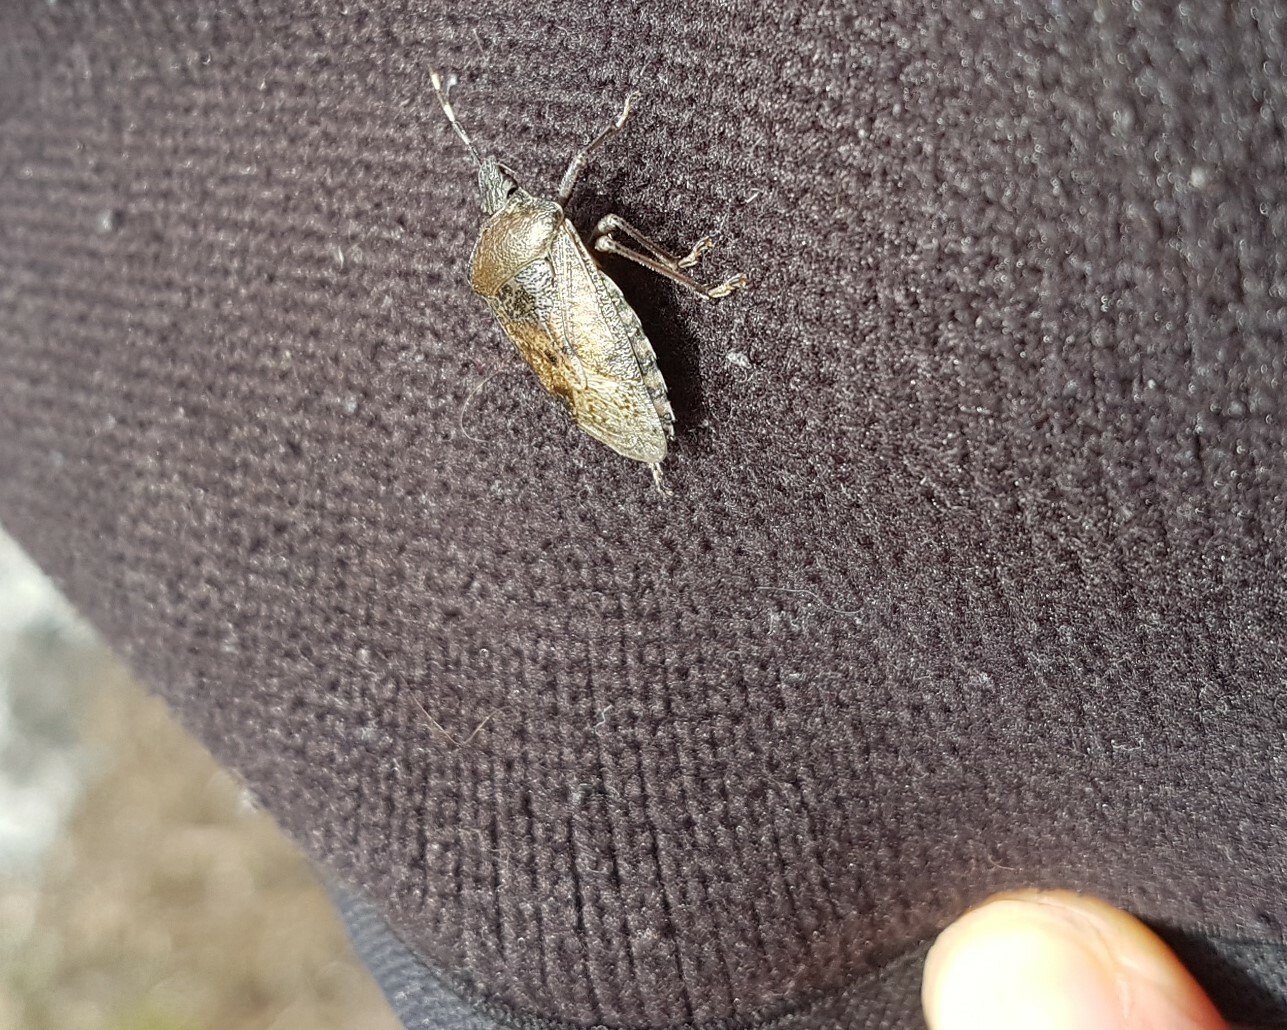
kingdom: Animalia
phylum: Arthropoda
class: Insecta
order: Hemiptera
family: Pentatomidae
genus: Rhaphigaster
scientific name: Rhaphigaster nebulosa
